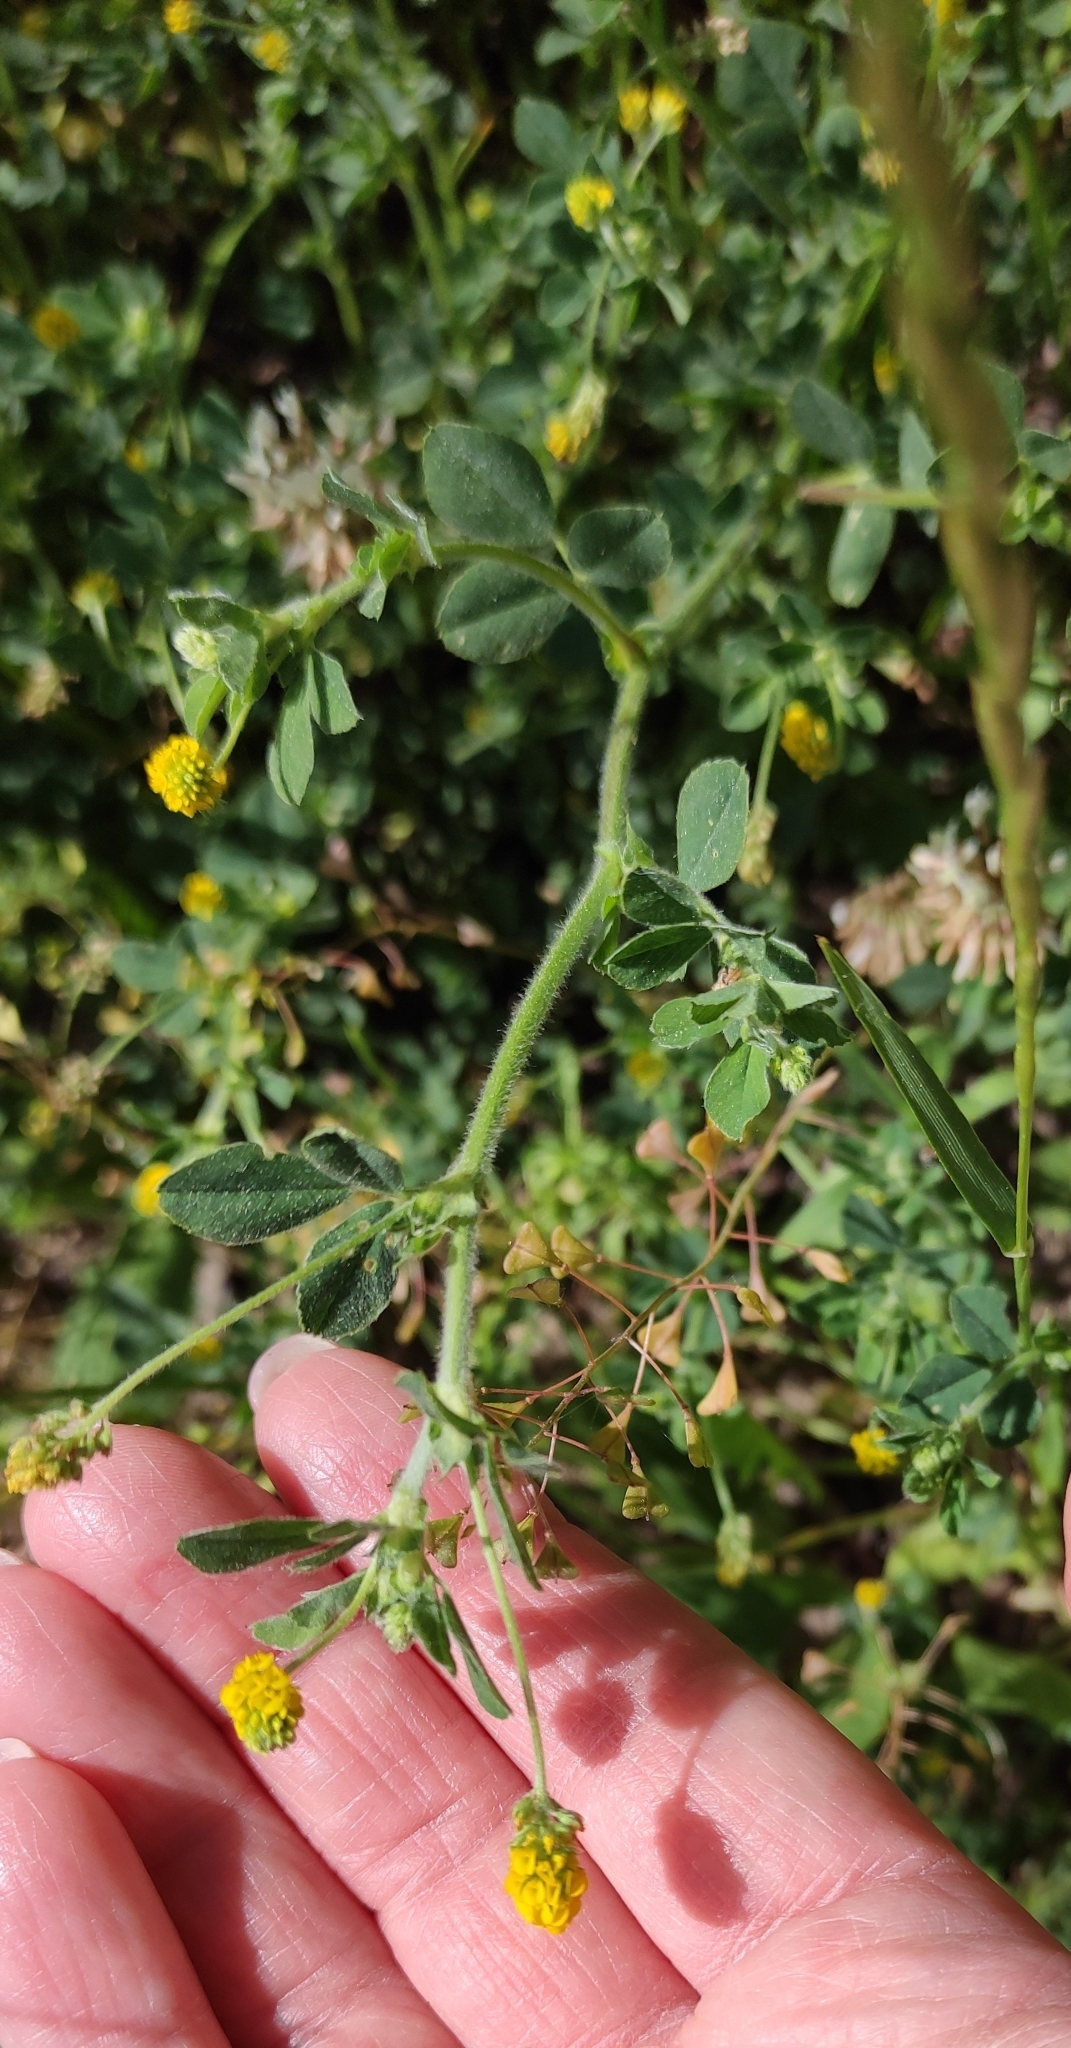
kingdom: Plantae
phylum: Tracheophyta
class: Magnoliopsida
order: Fabales
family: Fabaceae
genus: Medicago
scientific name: Medicago lupulina
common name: Black medick
